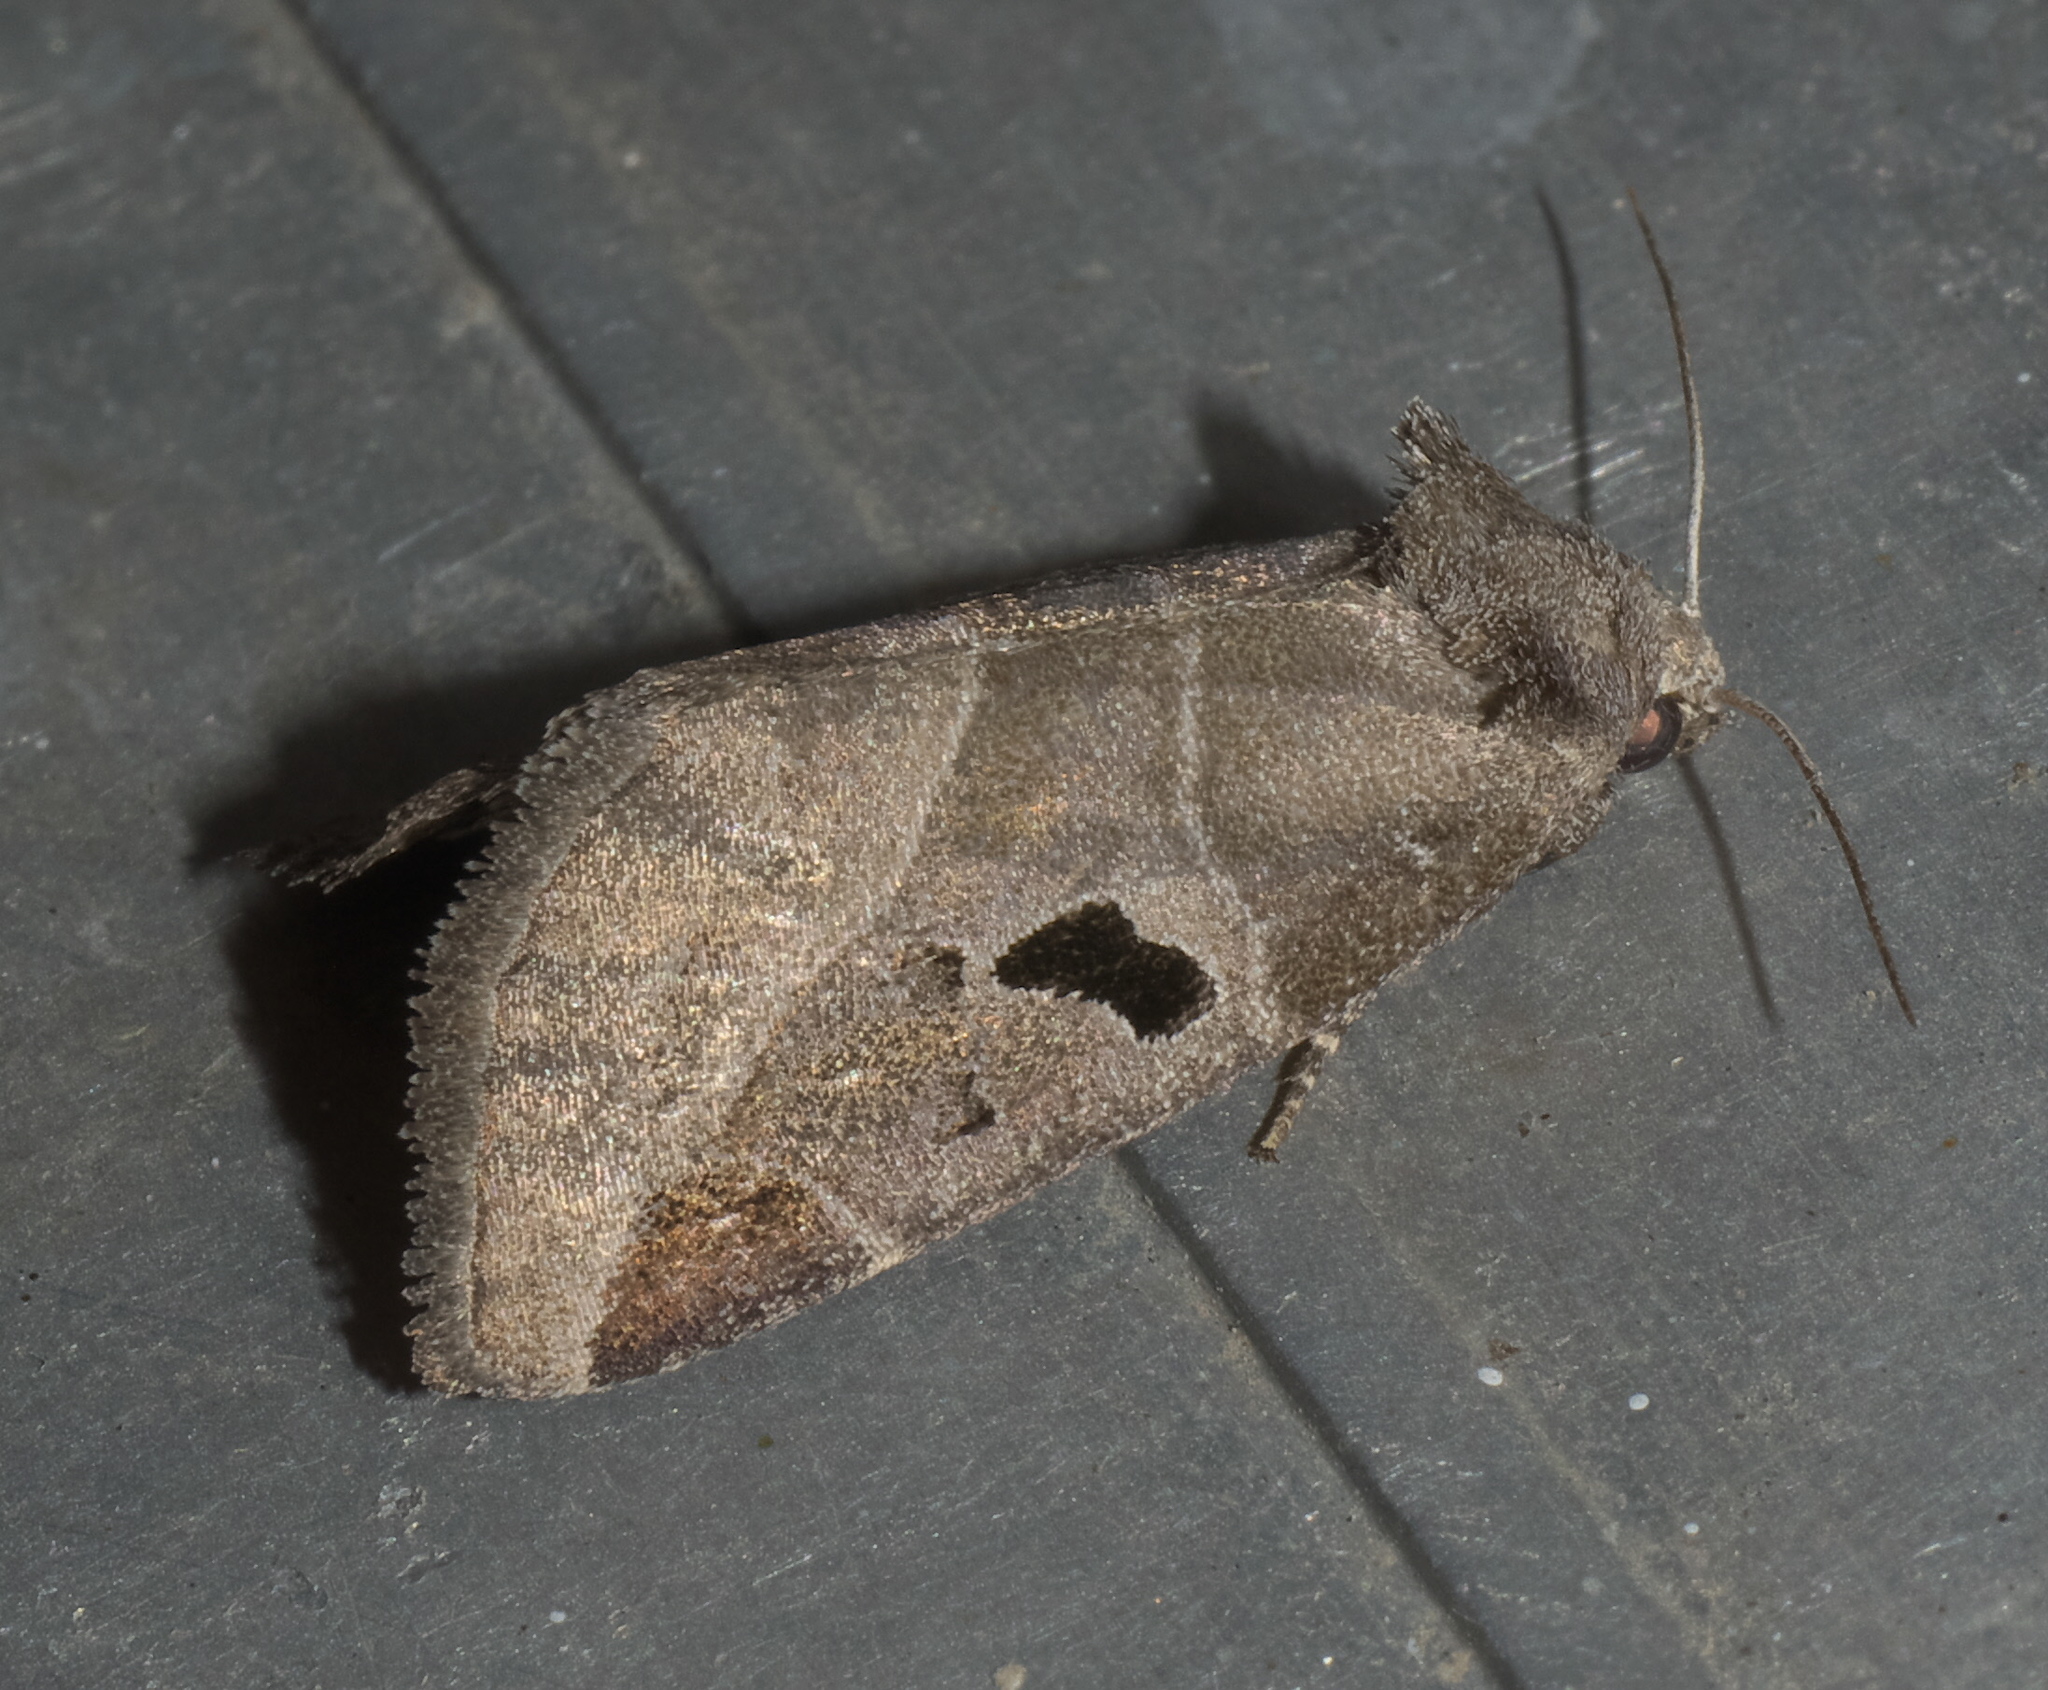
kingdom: Animalia
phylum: Arthropoda
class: Insecta
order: Lepidoptera
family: Noctuidae
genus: Plagiomimicus
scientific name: Plagiomimicus pityochromus
